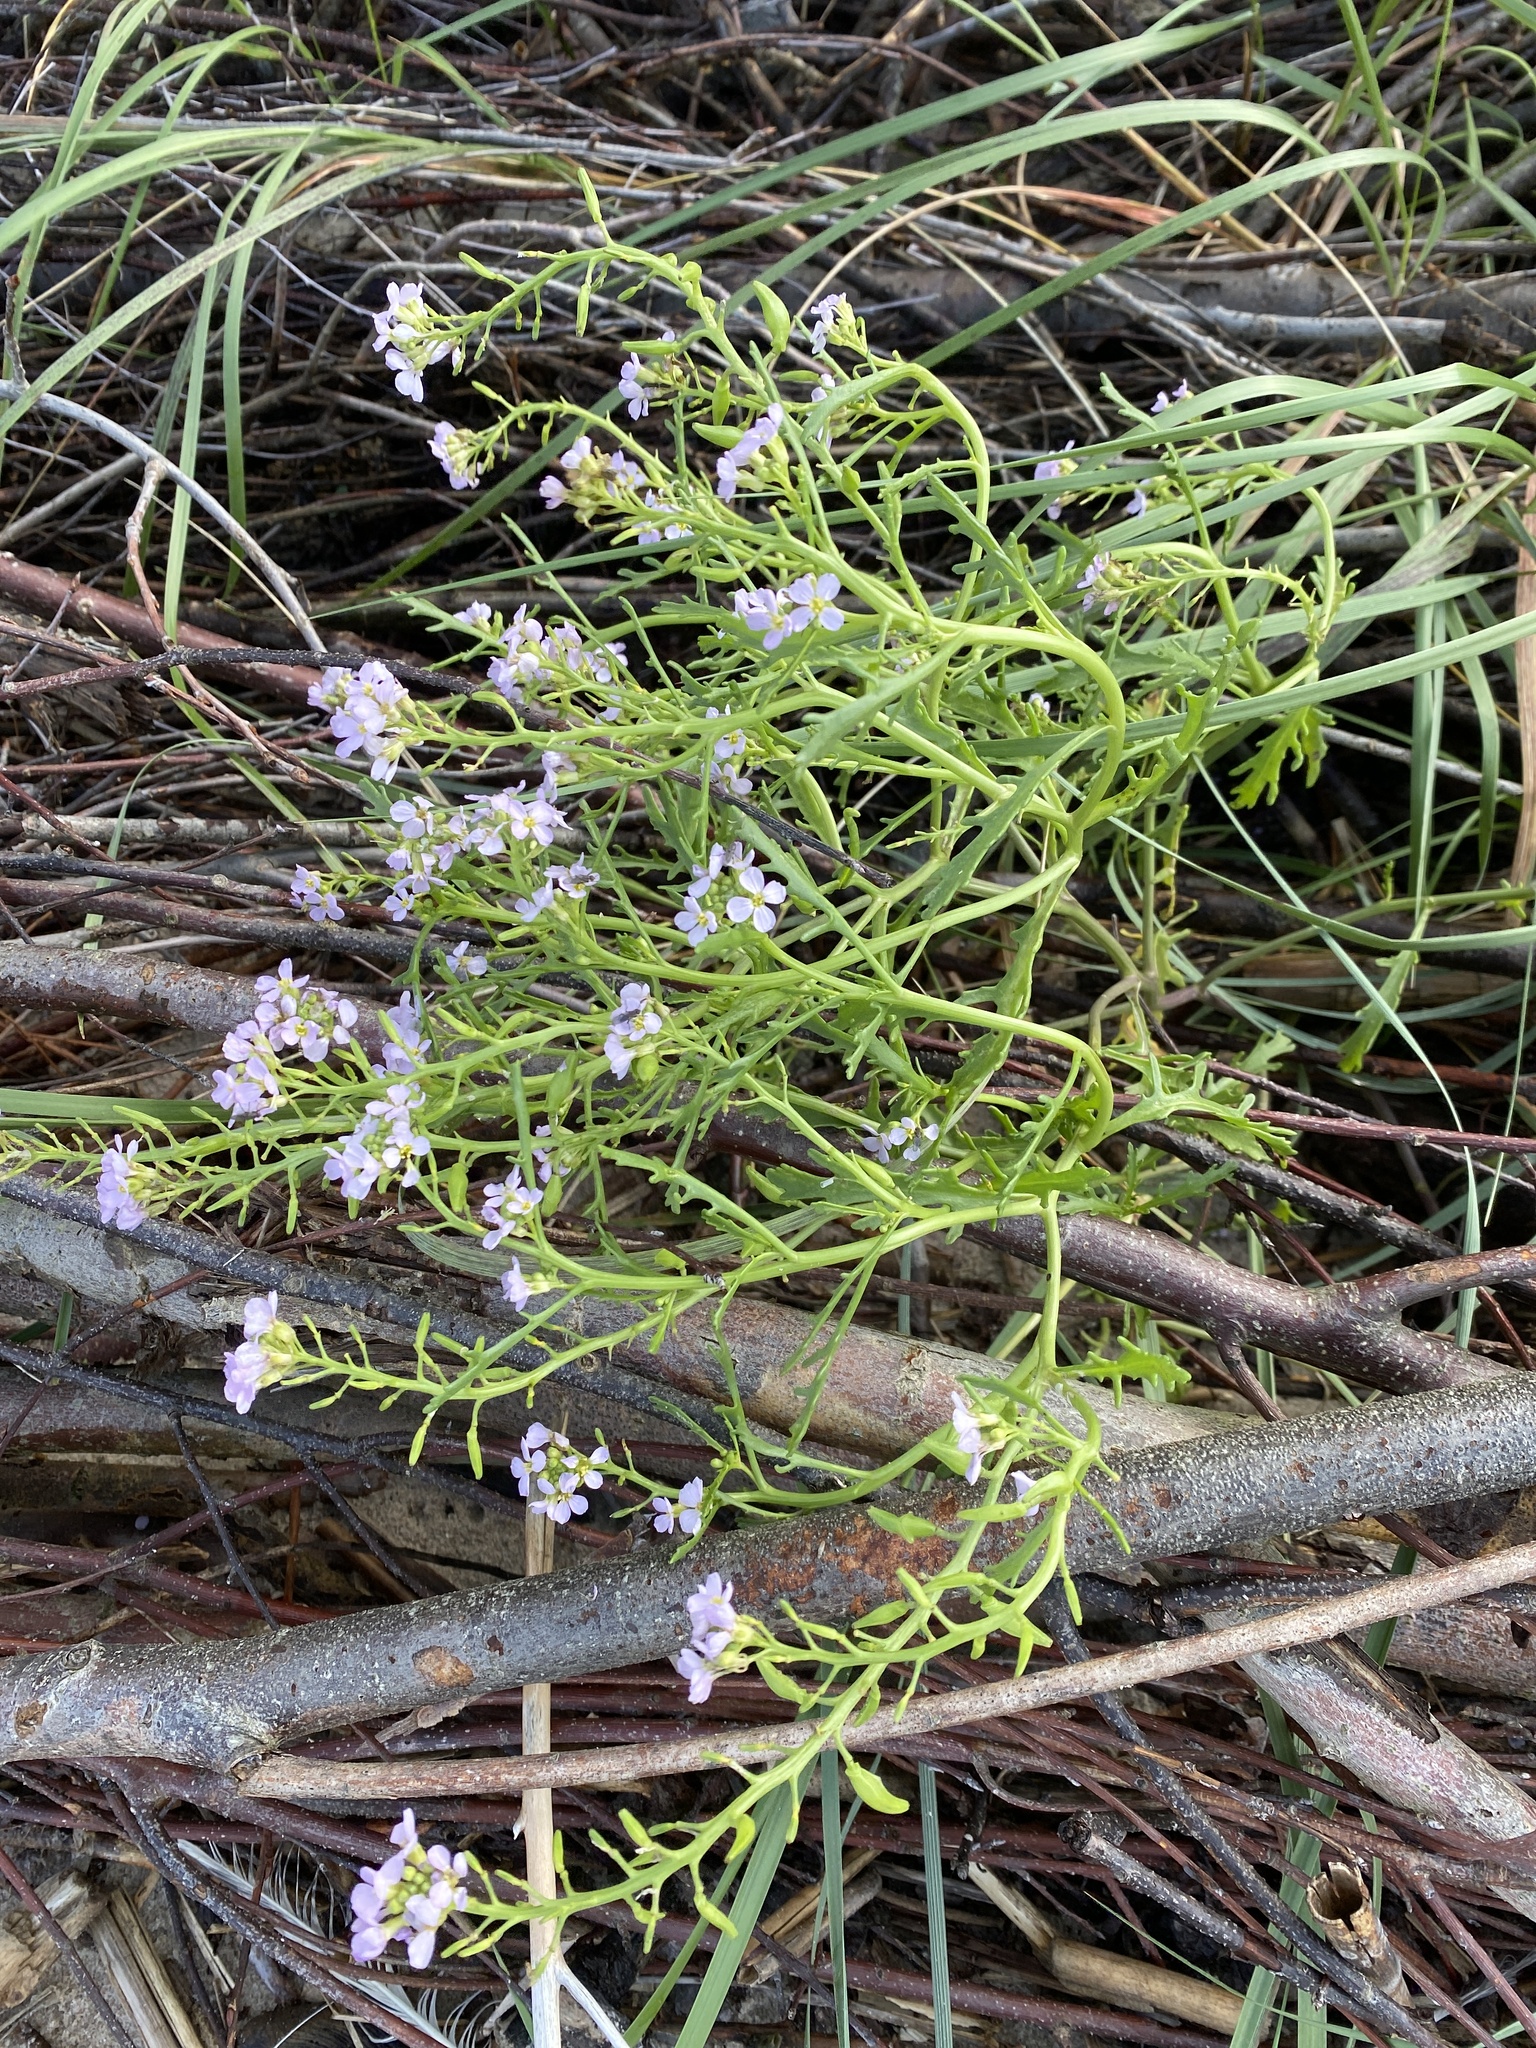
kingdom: Plantae
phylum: Tracheophyta
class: Magnoliopsida
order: Brassicales
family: Brassicaceae
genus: Cakile
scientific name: Cakile maritima
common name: Sea rocket
